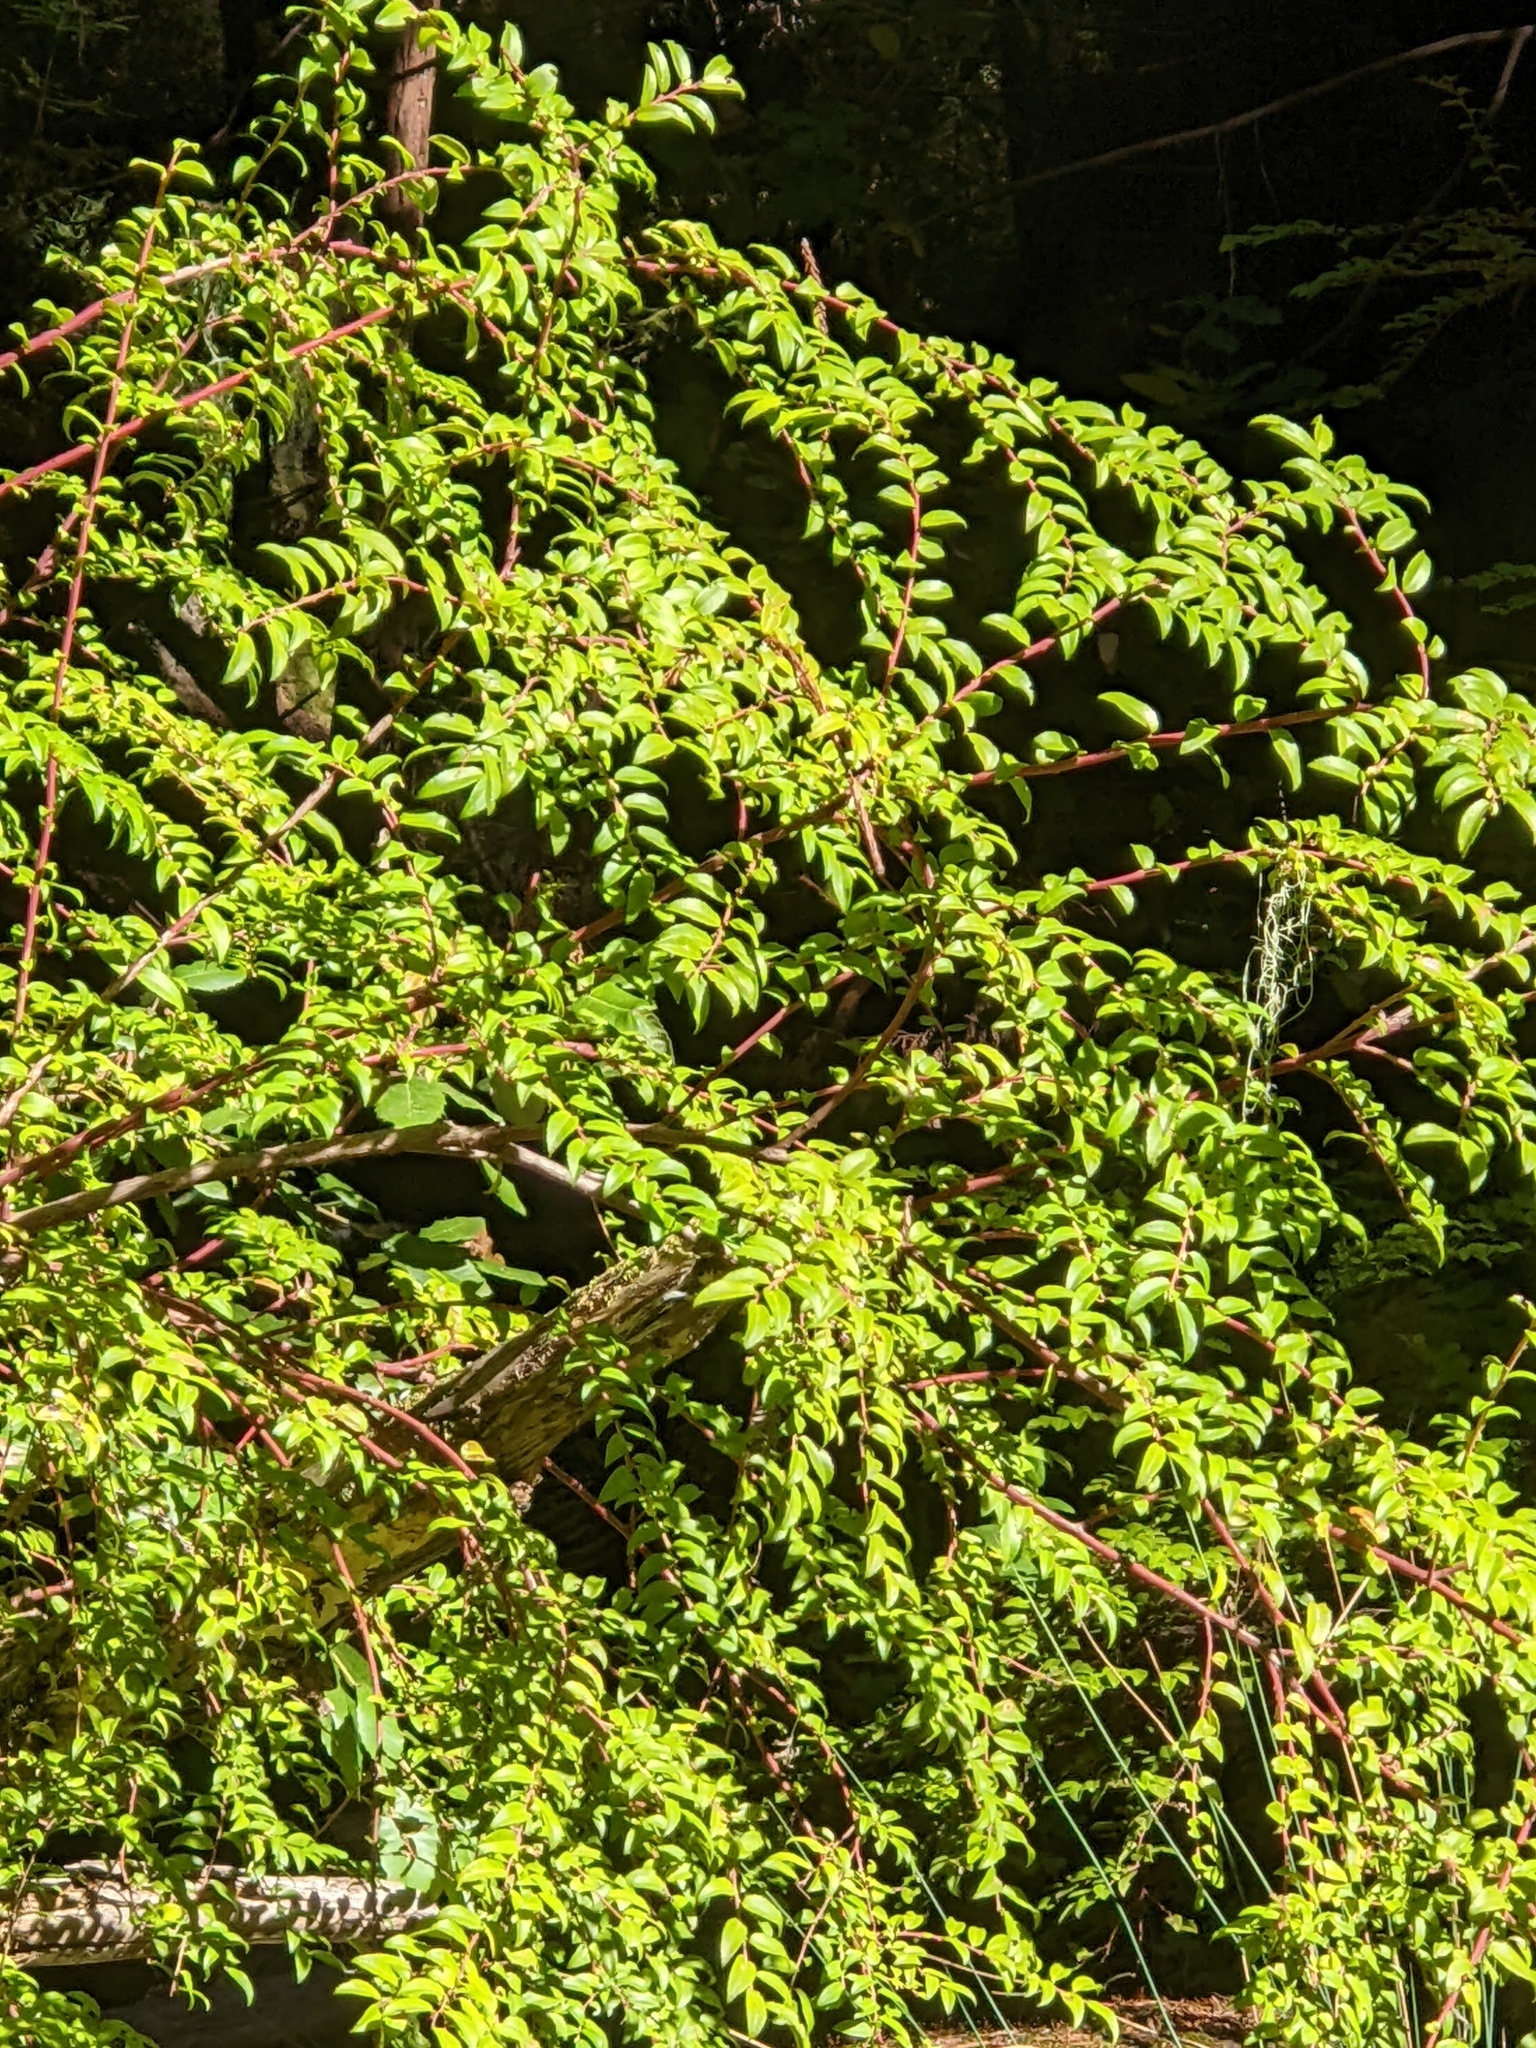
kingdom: Plantae
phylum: Tracheophyta
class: Magnoliopsida
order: Ericales
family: Ericaceae
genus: Vaccinium
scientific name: Vaccinium ovatum
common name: California-huckleberry
